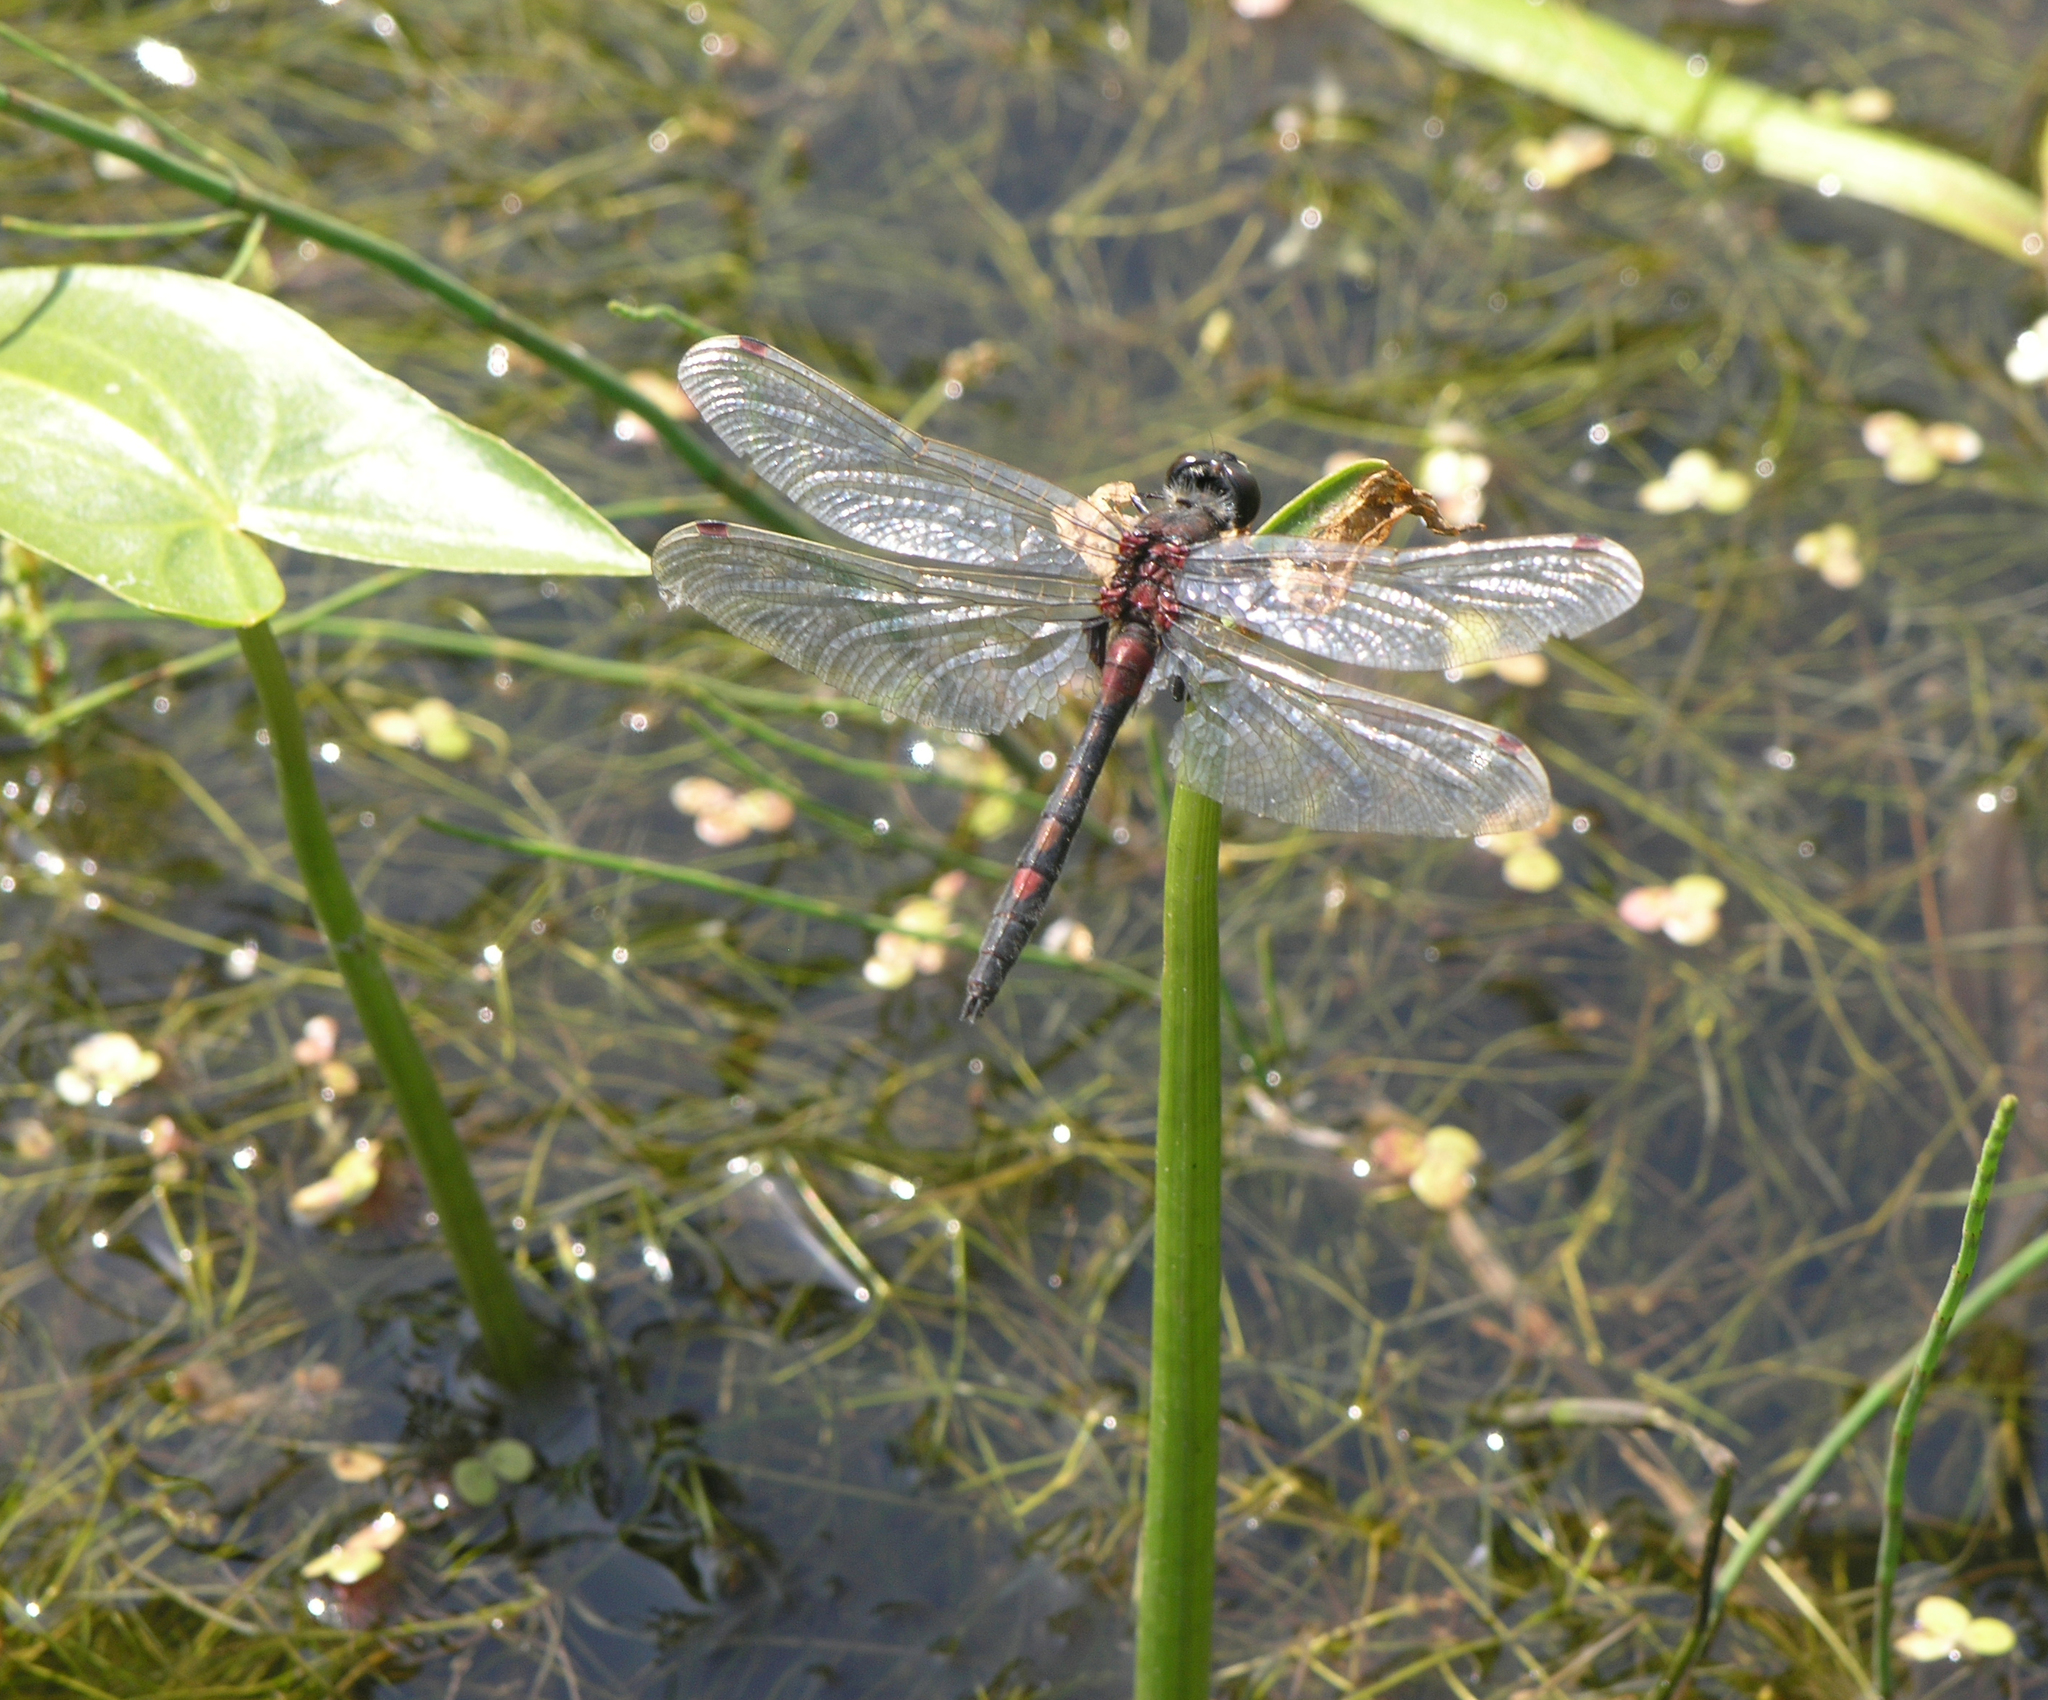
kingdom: Animalia
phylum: Arthropoda
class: Insecta
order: Odonata
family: Libellulidae
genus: Leucorrhinia
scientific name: Leucorrhinia rubicunda
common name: Ruby whiteface
